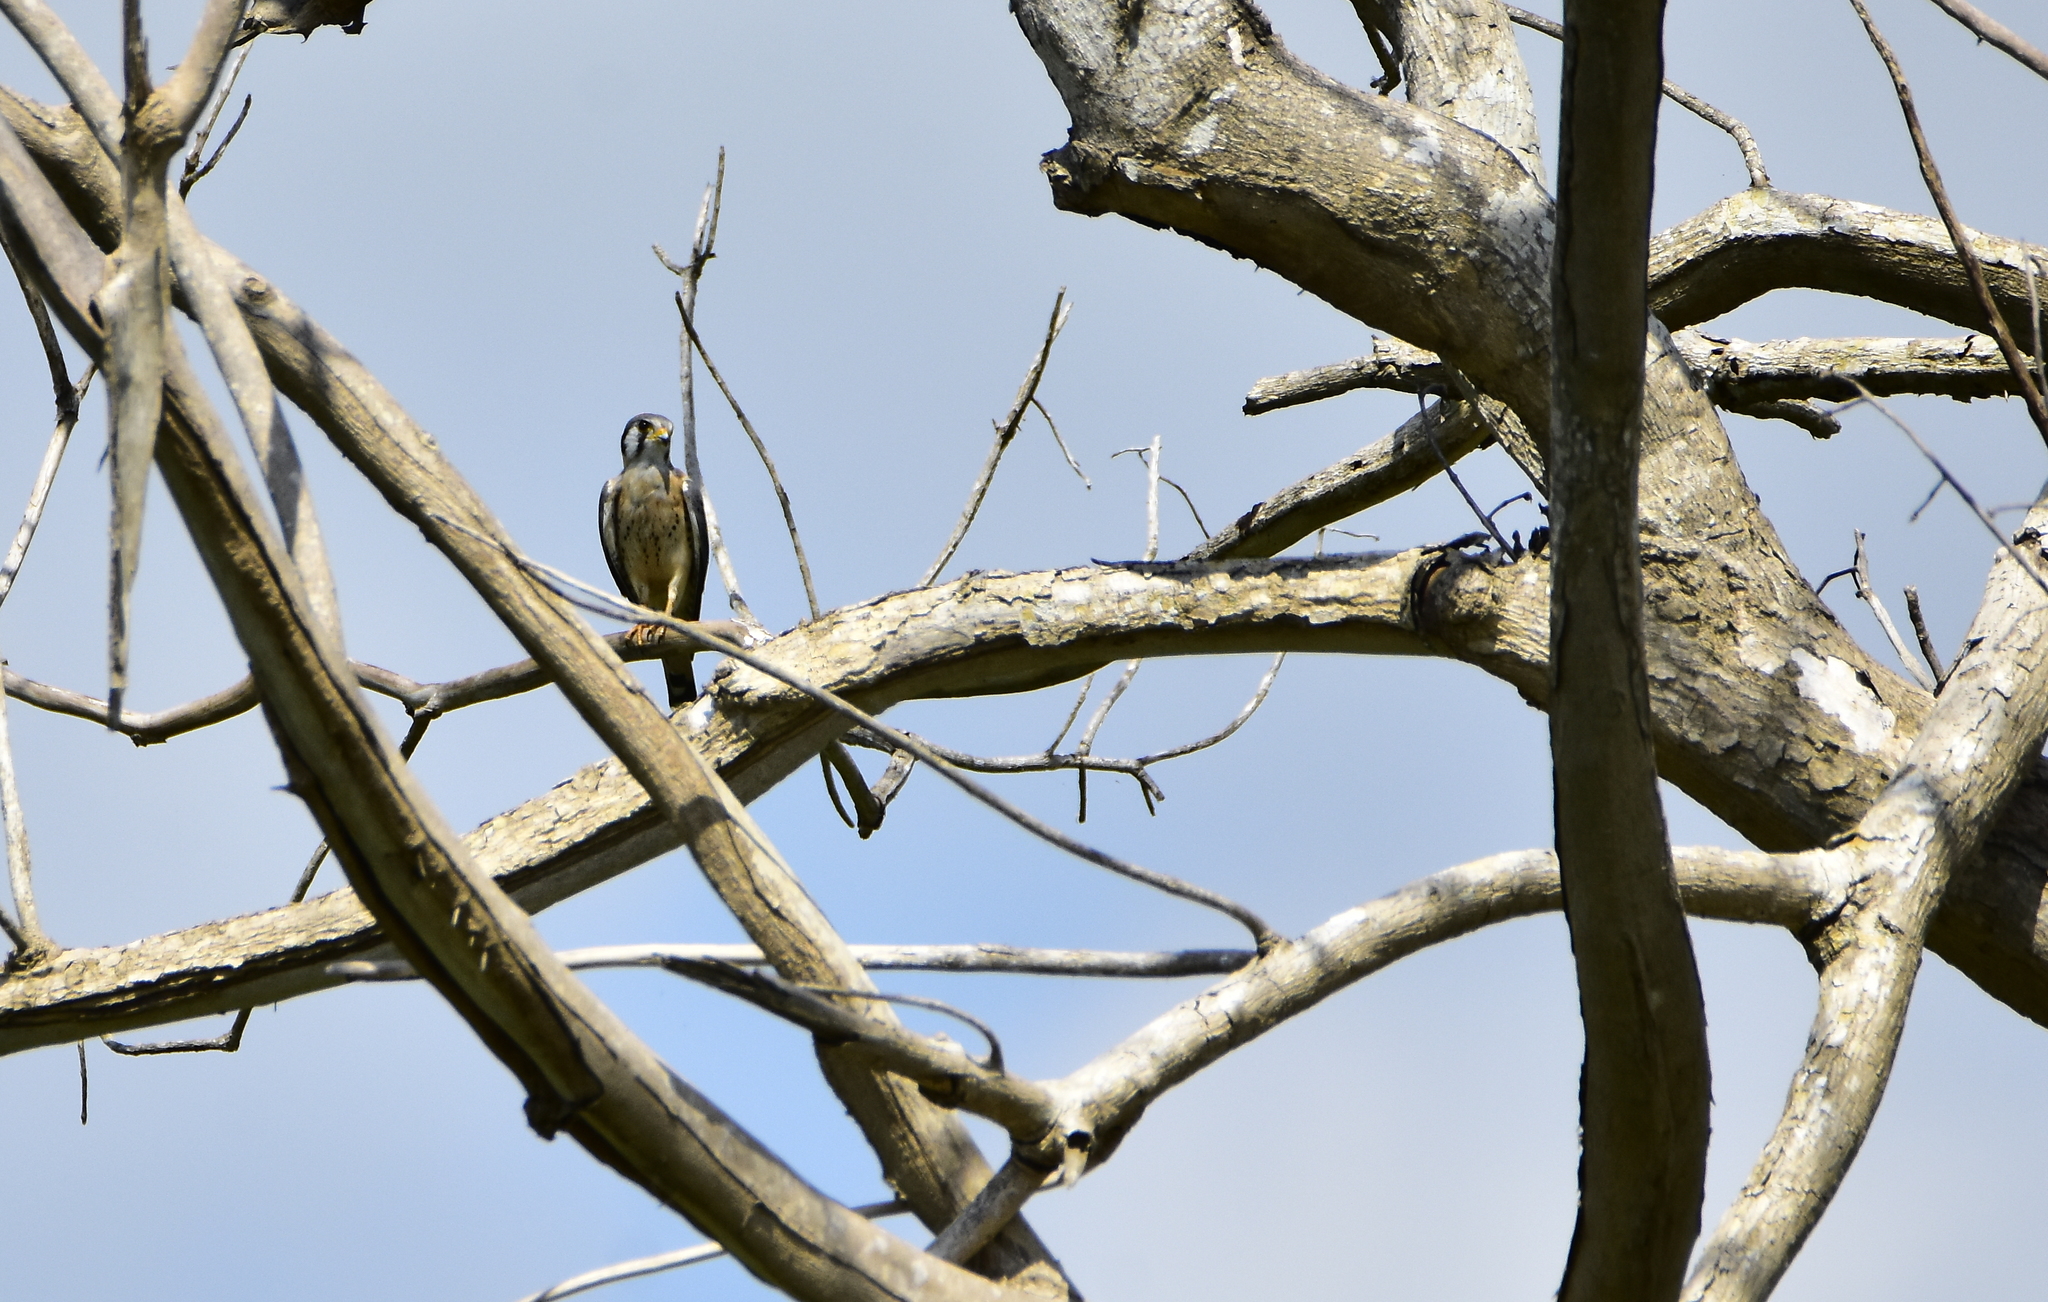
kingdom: Animalia
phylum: Chordata
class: Aves
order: Falconiformes
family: Falconidae
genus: Falco
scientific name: Falco sparverius
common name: American kestrel
